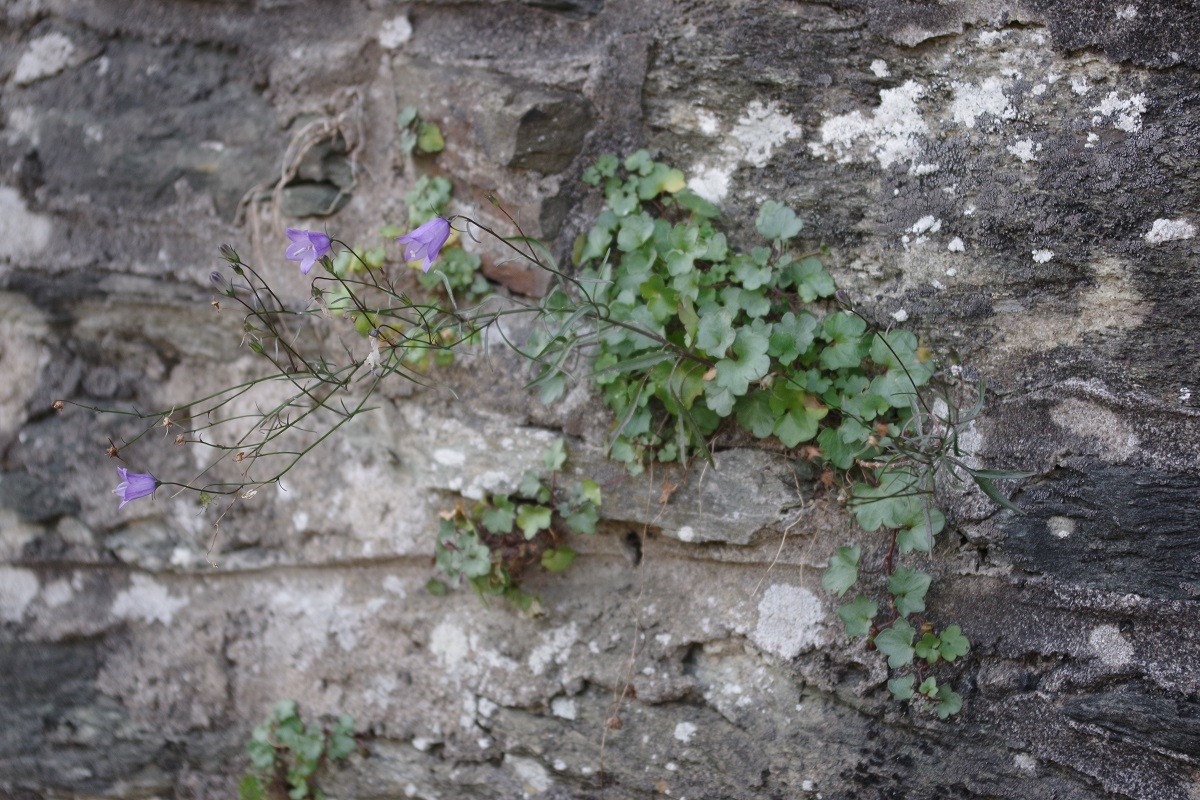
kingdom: Plantae
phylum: Tracheophyta
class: Magnoliopsida
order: Asterales
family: Campanulaceae
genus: Campanula
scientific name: Campanula rotundifolia
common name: Harebell
